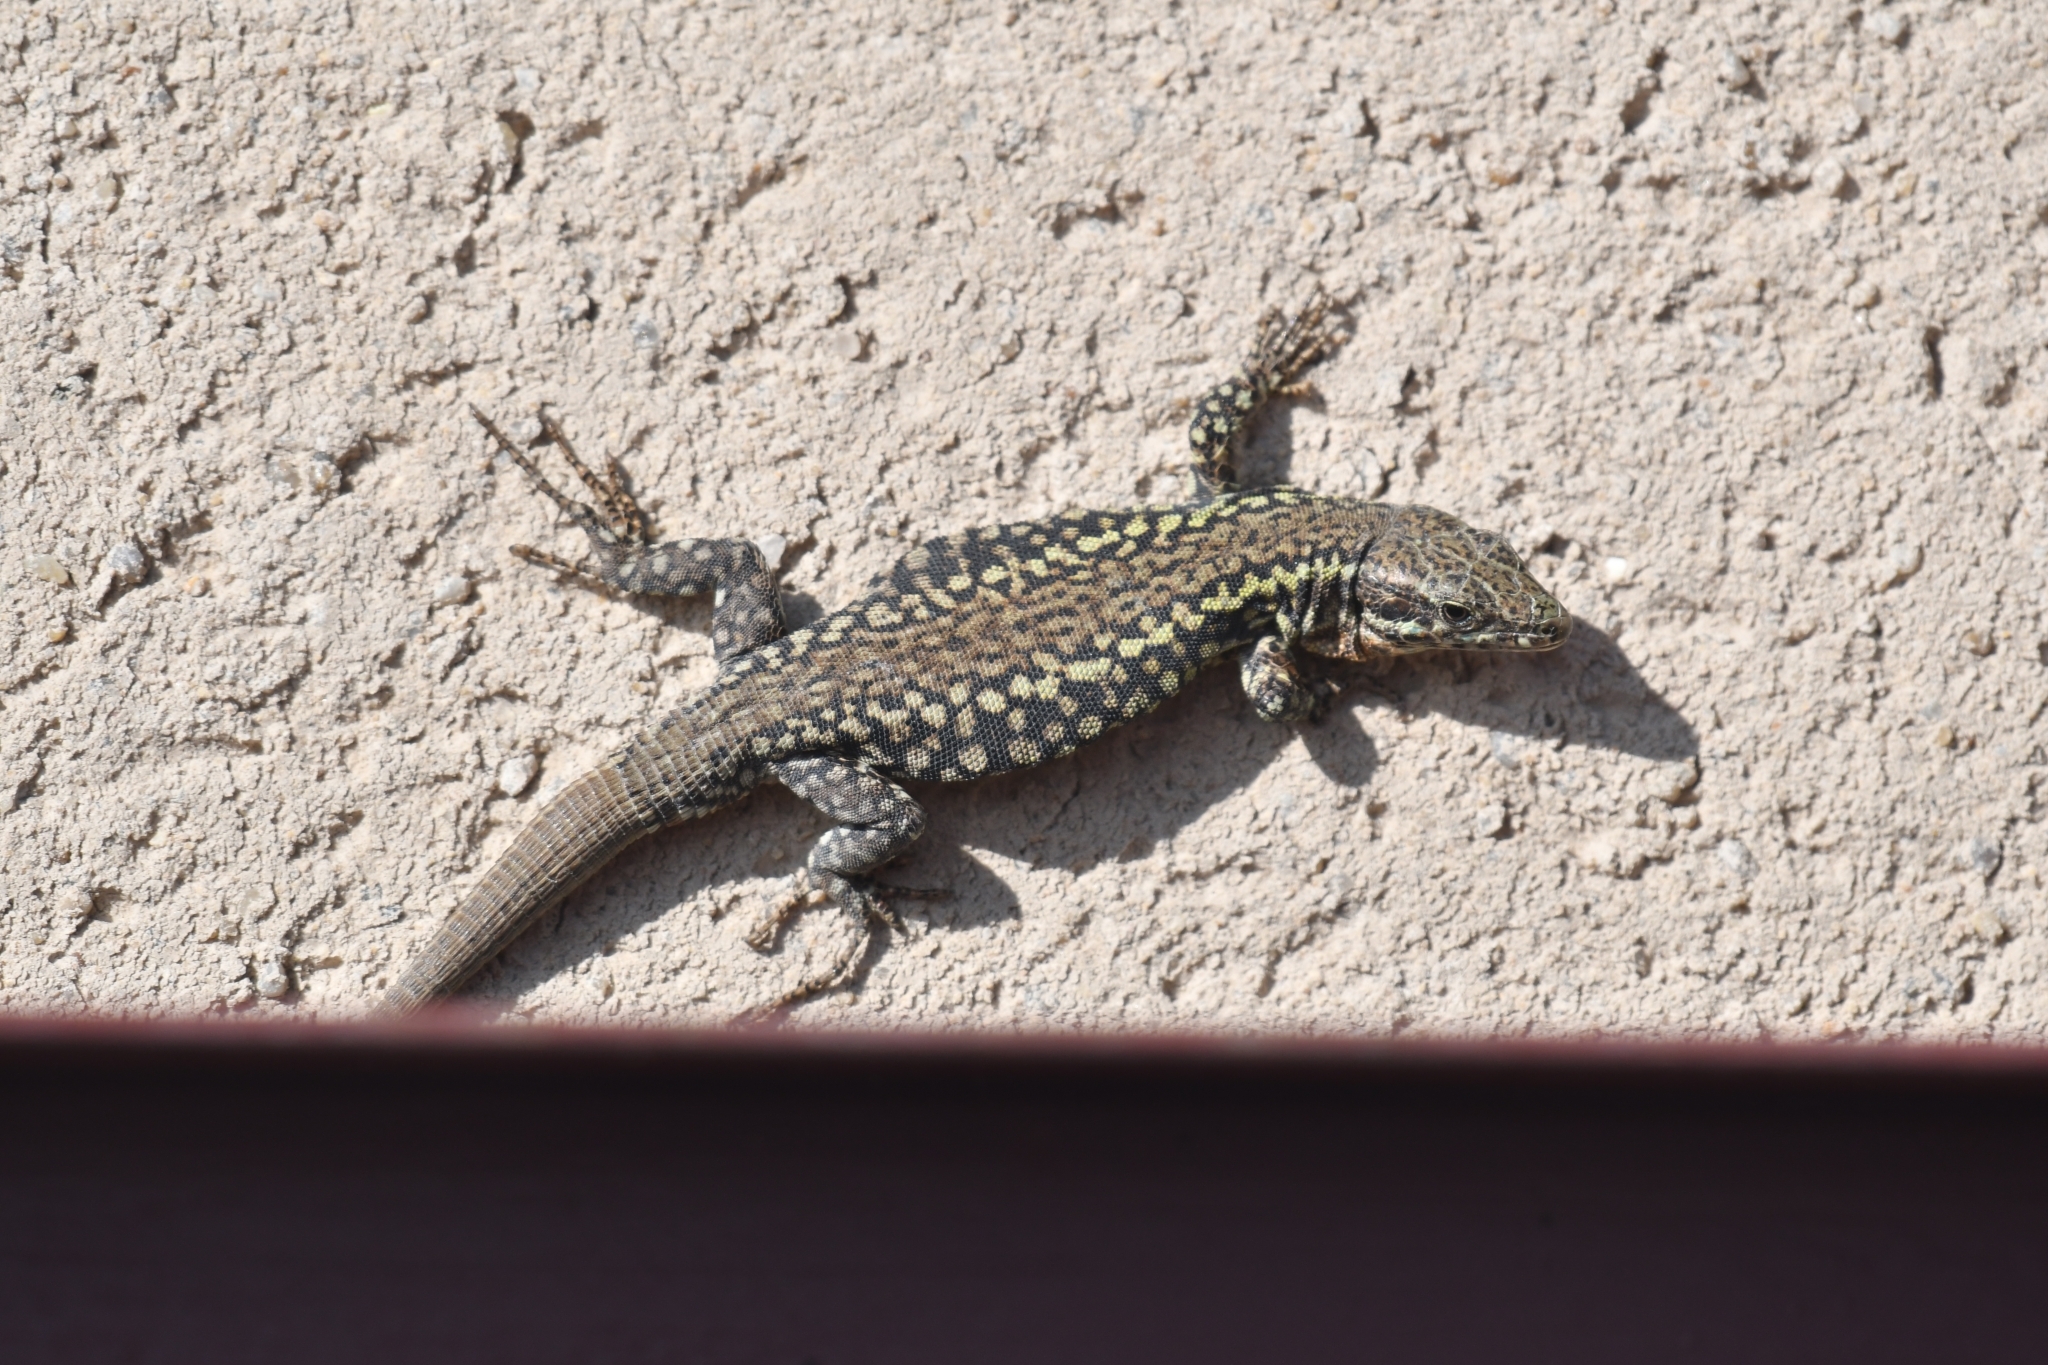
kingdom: Animalia
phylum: Chordata
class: Squamata
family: Lacertidae
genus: Podarcis
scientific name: Podarcis muralis
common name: Common wall lizard
